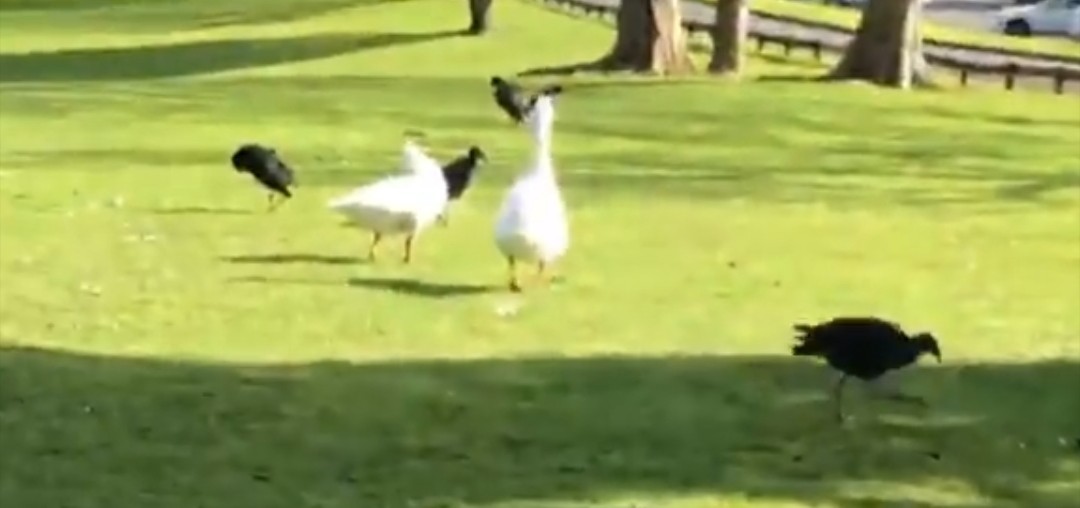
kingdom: Animalia
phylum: Chordata
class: Aves
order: Anseriformes
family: Anatidae
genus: Anser
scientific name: Anser anser
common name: Greylag goose
